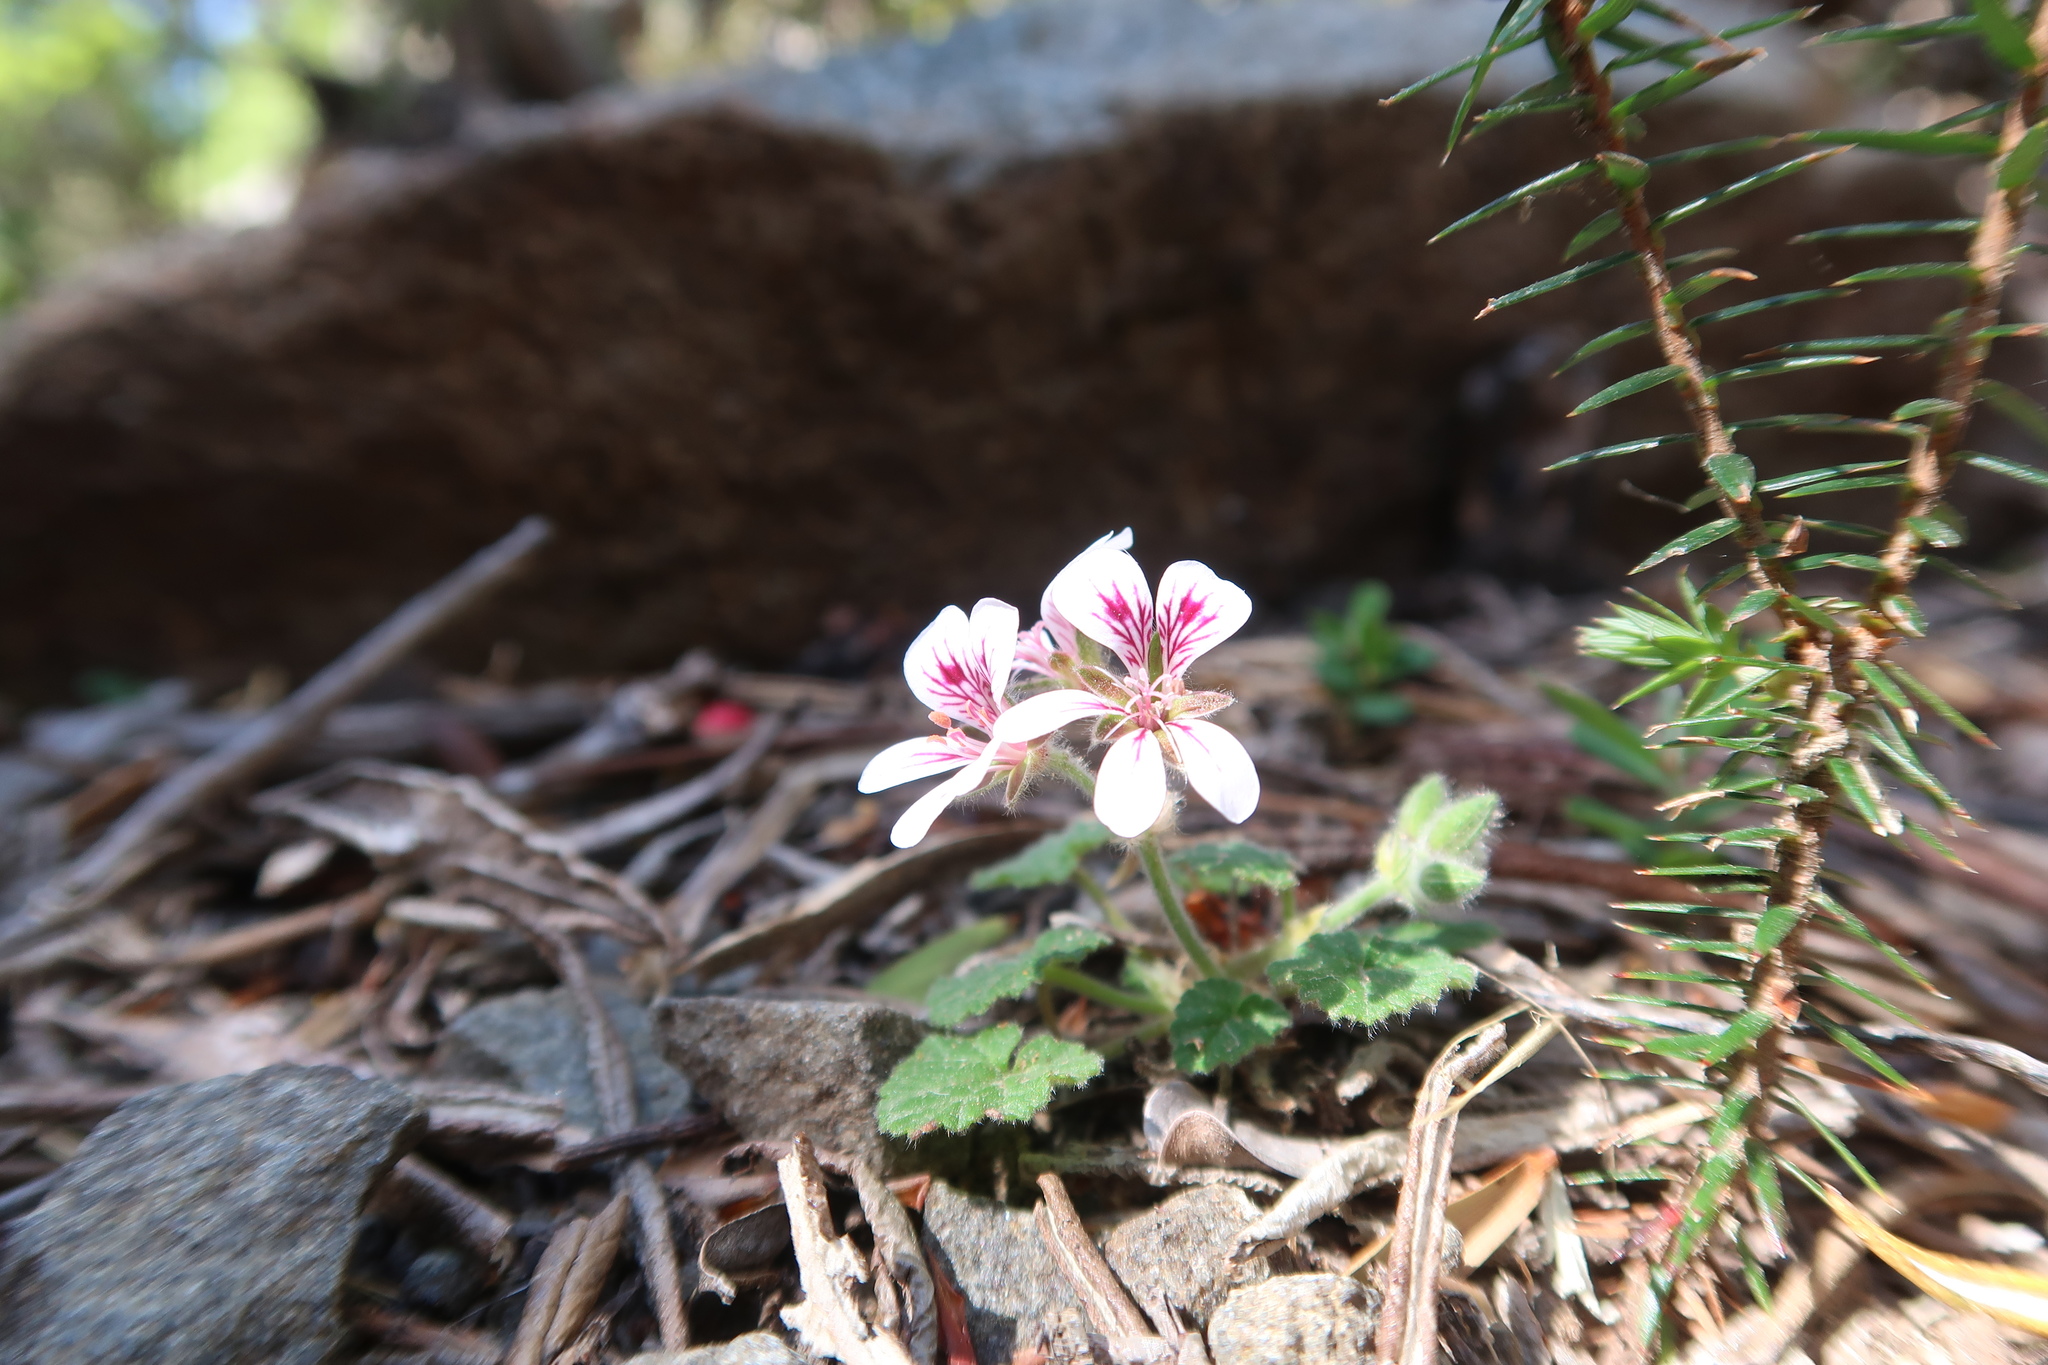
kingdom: Plantae
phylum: Tracheophyta
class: Magnoliopsida
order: Geraniales
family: Geraniaceae
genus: Pelargonium
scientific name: Pelargonium australe
